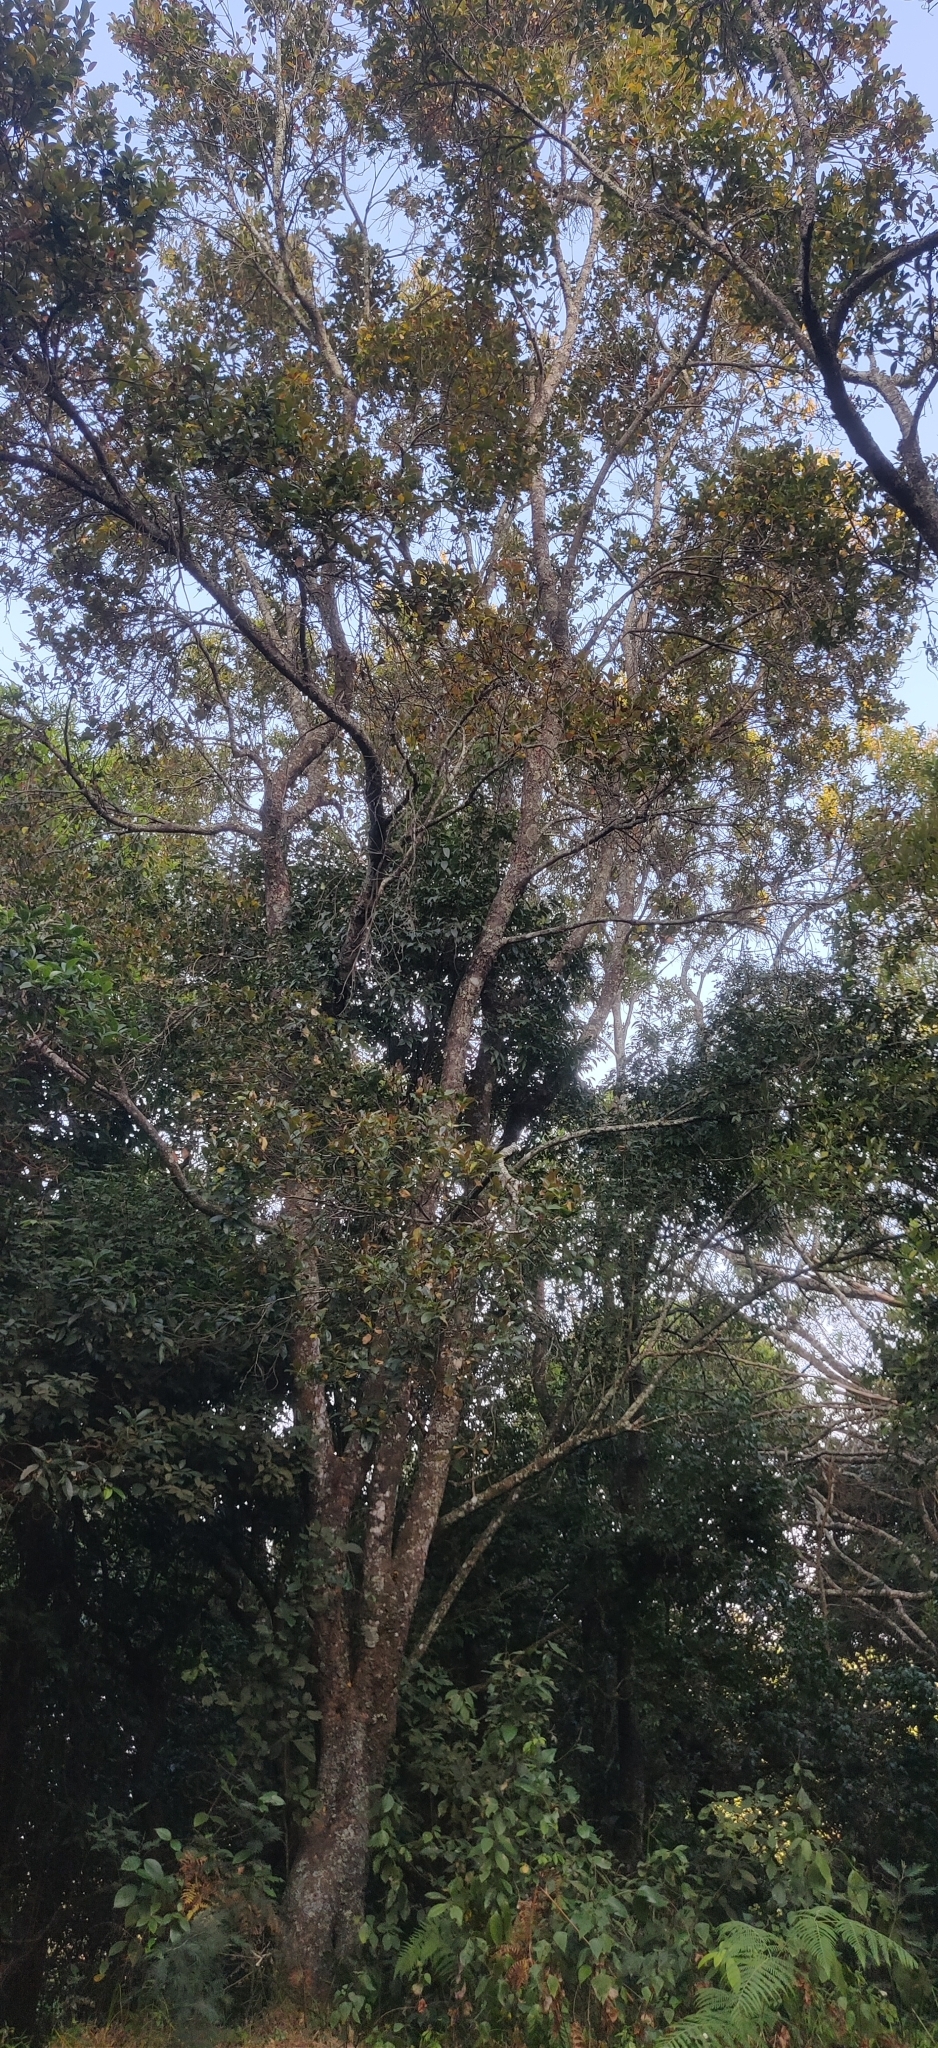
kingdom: Plantae
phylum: Tracheophyta
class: Magnoliopsida
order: Ericales
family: Theaceae
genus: Polyspora
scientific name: Polyspora obtusa
